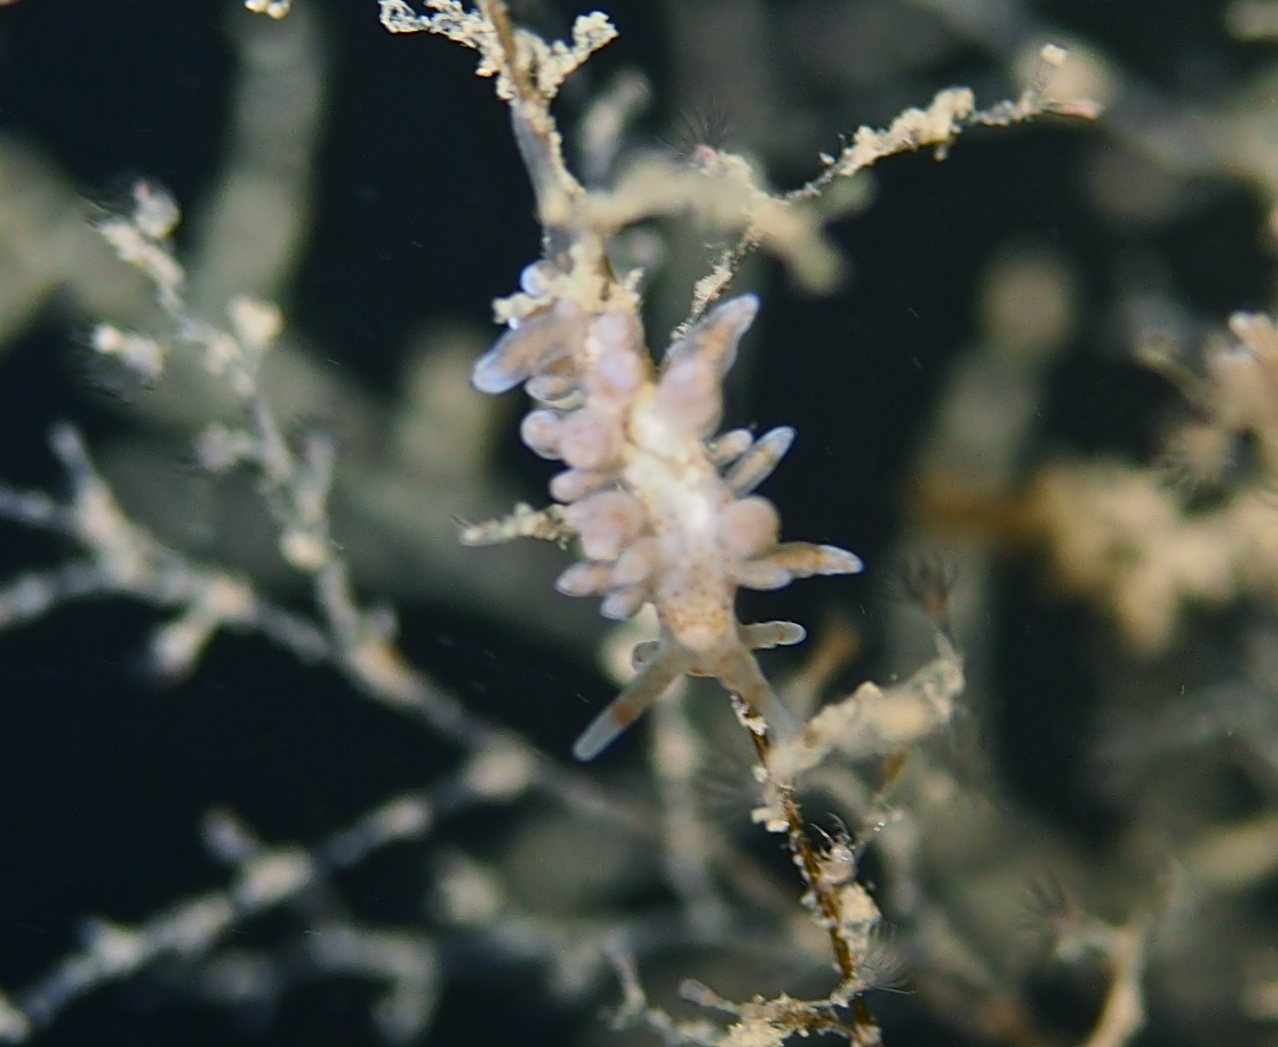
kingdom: Animalia
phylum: Mollusca
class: Gastropoda
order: Nudibranchia
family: Eubranchidae
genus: Eubranchus
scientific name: Eubranchus rupium
